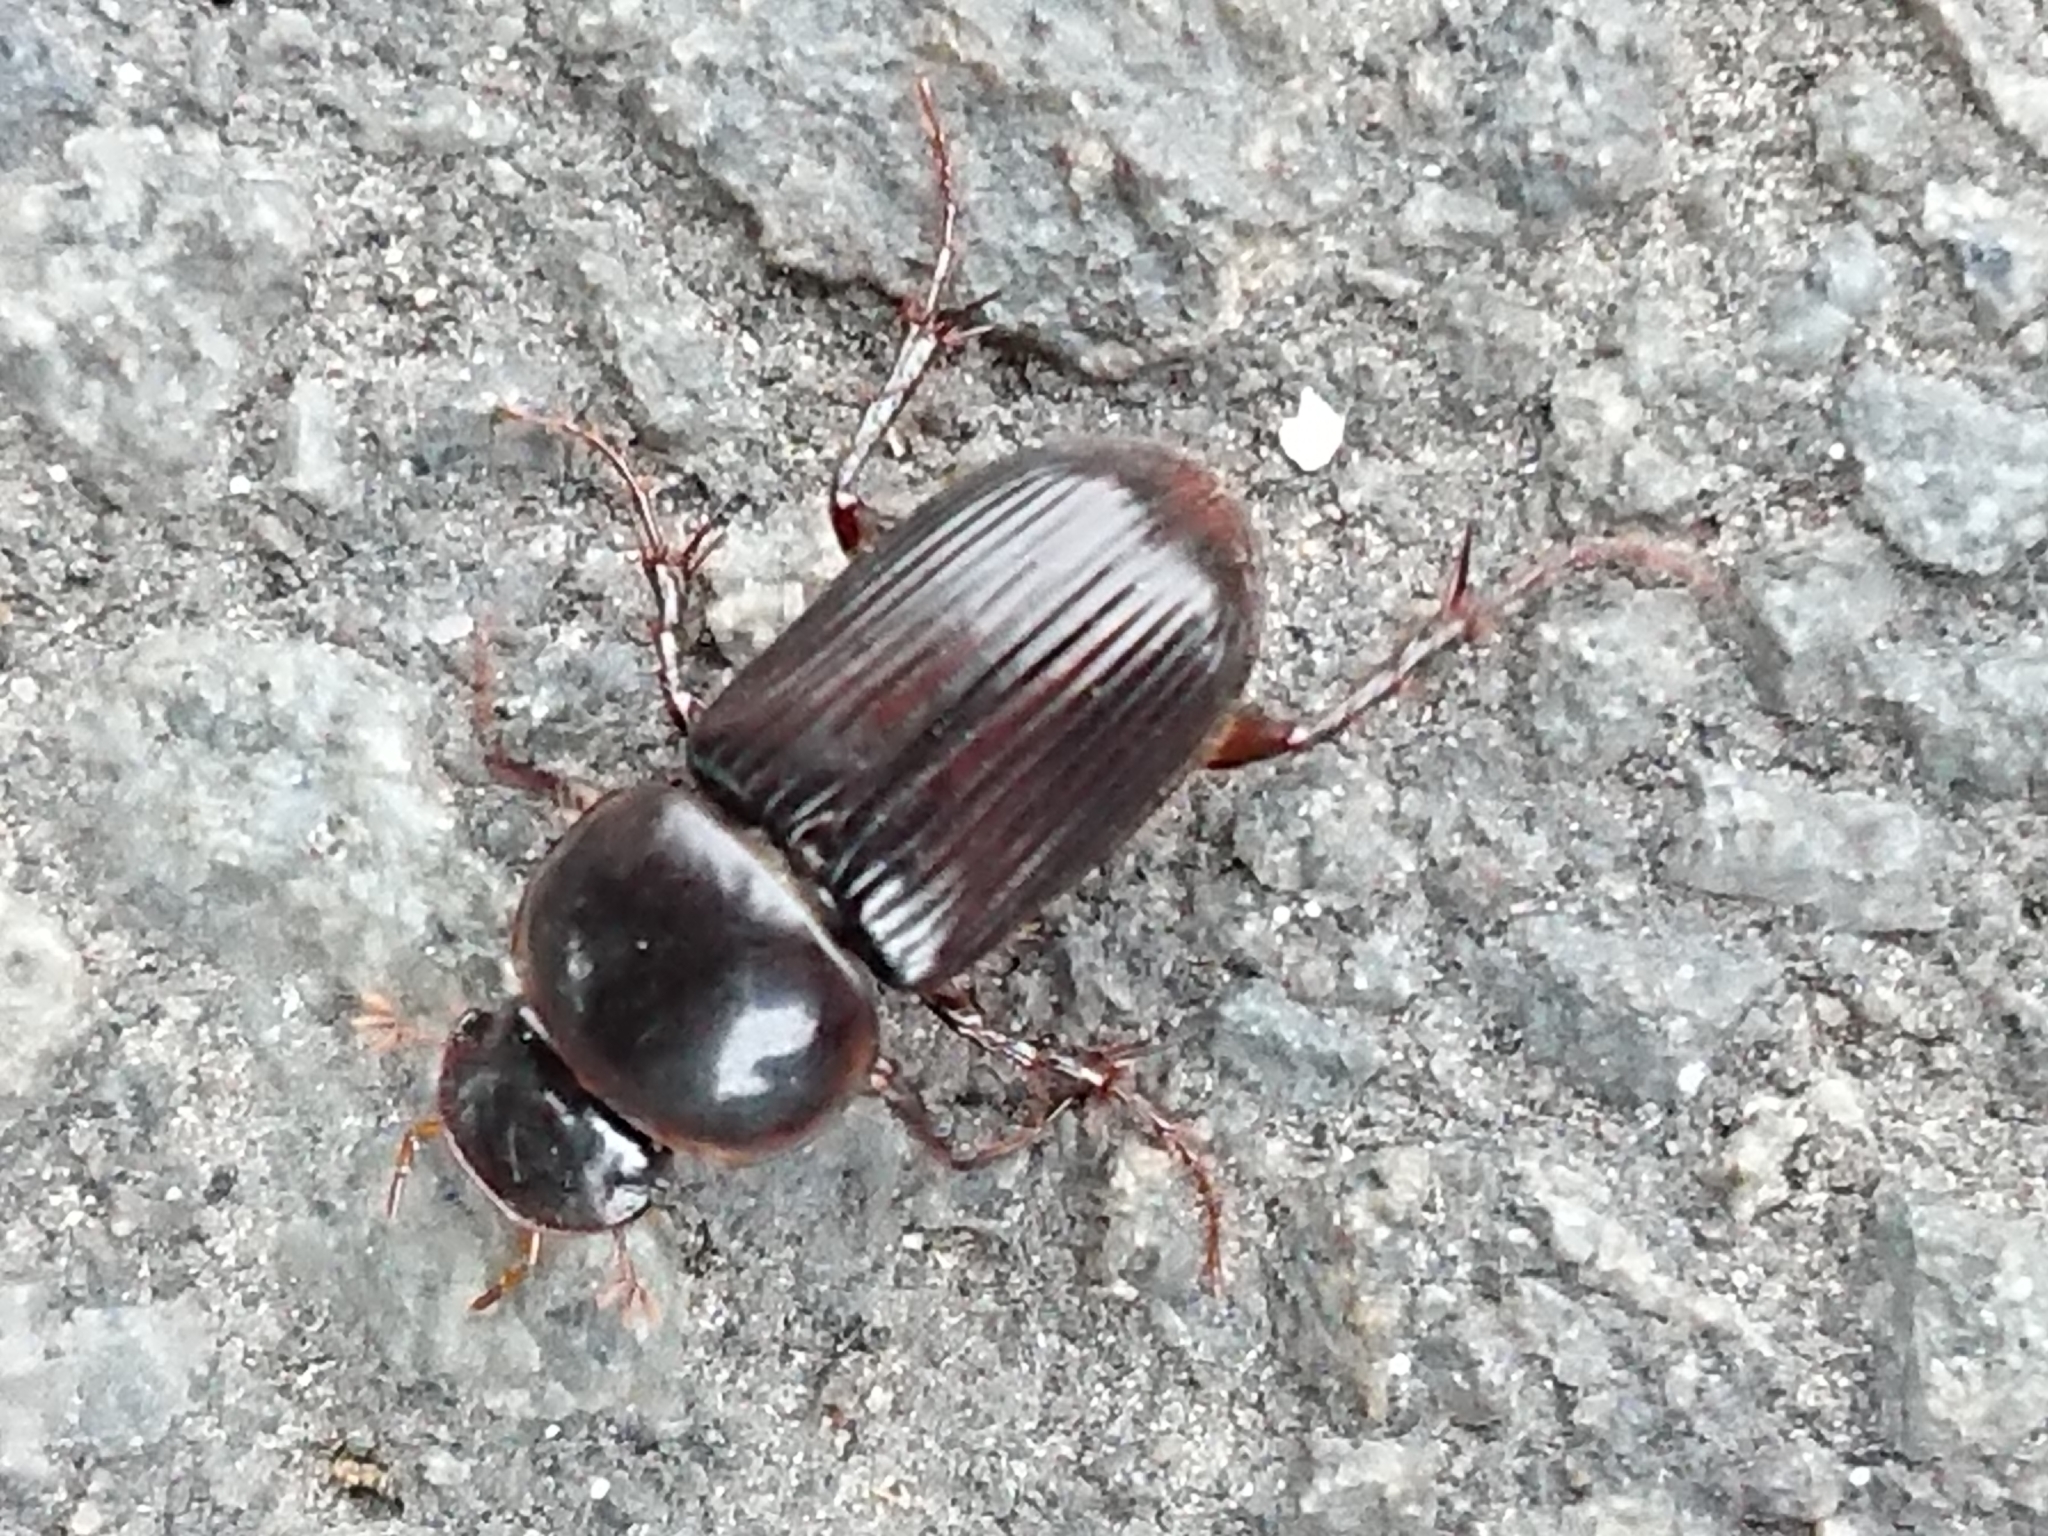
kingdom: Animalia
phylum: Arthropoda
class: Insecta
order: Coleoptera
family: Scarabaeidae
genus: Acrossidius
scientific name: Acrossidius tasmaniae
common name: Black-headed pasture cockchafer
